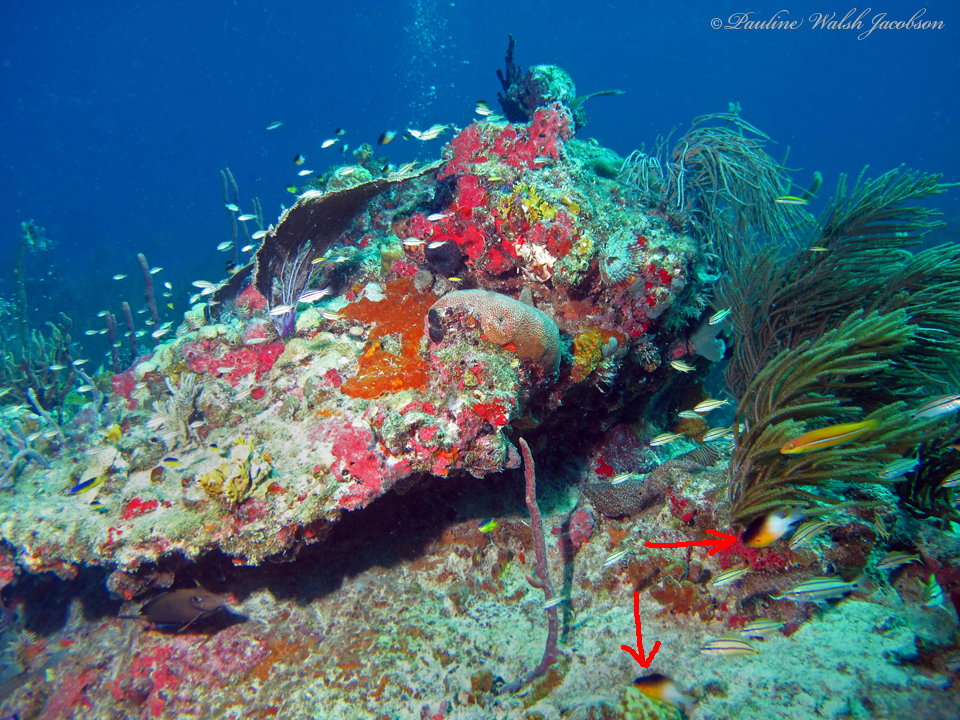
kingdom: Animalia
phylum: Chordata
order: Perciformes
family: Pomacentridae
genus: Stegastes
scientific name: Stegastes partitus
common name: Bicolor damselfish
